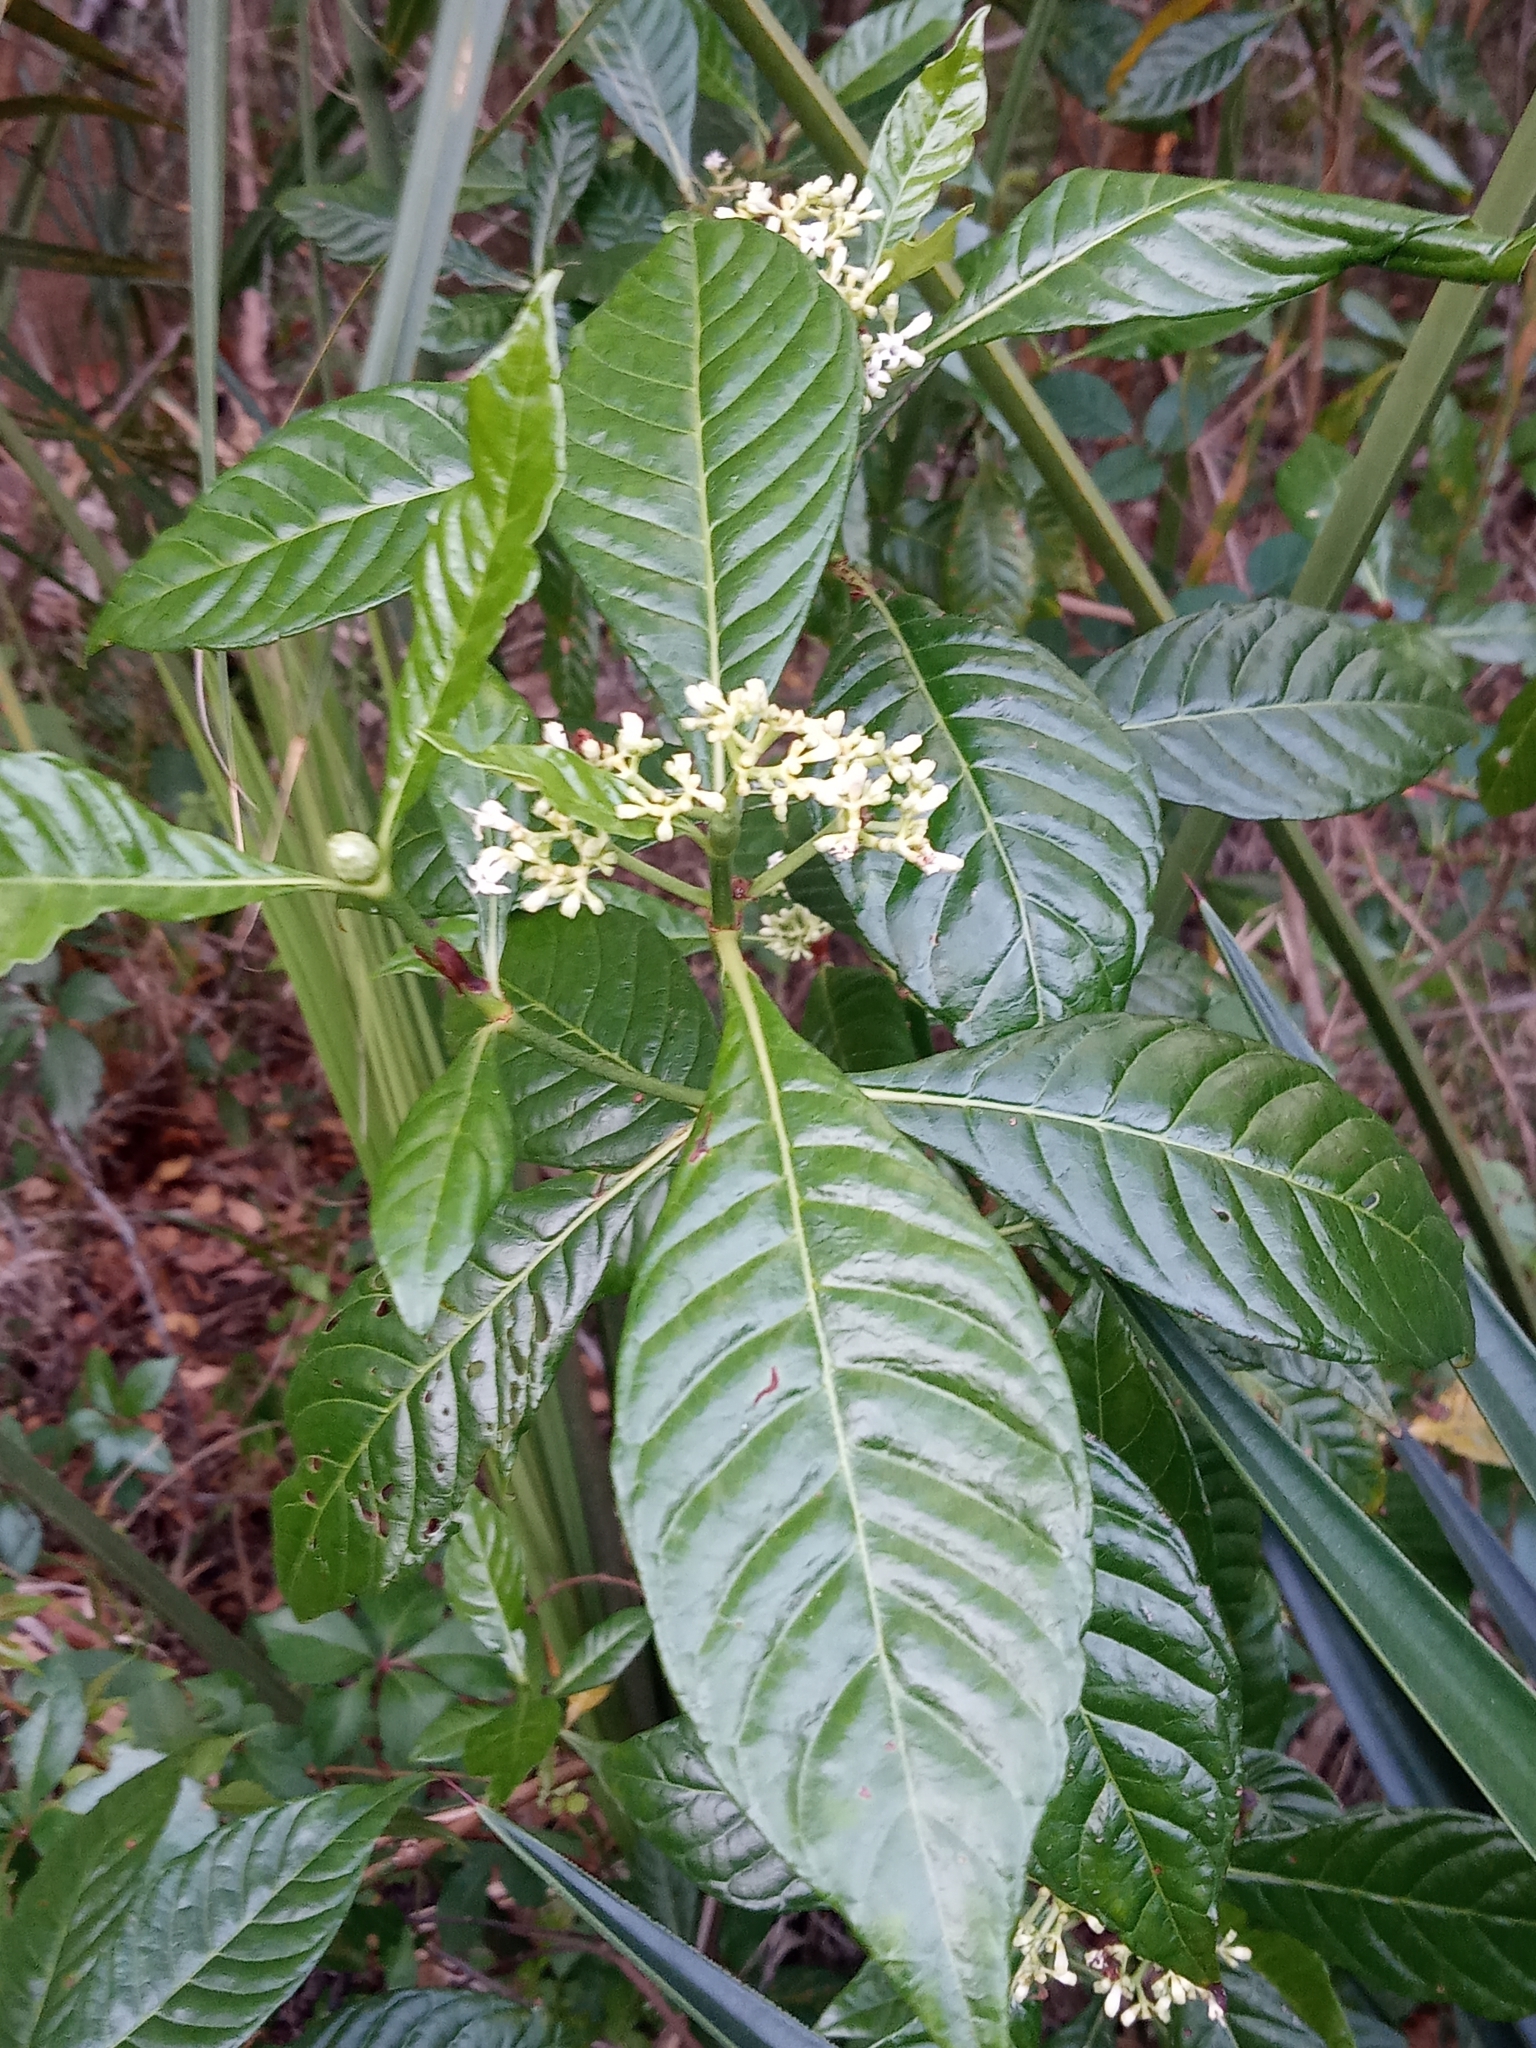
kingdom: Plantae
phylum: Tracheophyta
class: Magnoliopsida
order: Gentianales
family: Rubiaceae
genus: Psychotria
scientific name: Psychotria nervosa
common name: Bastard cankerberry
